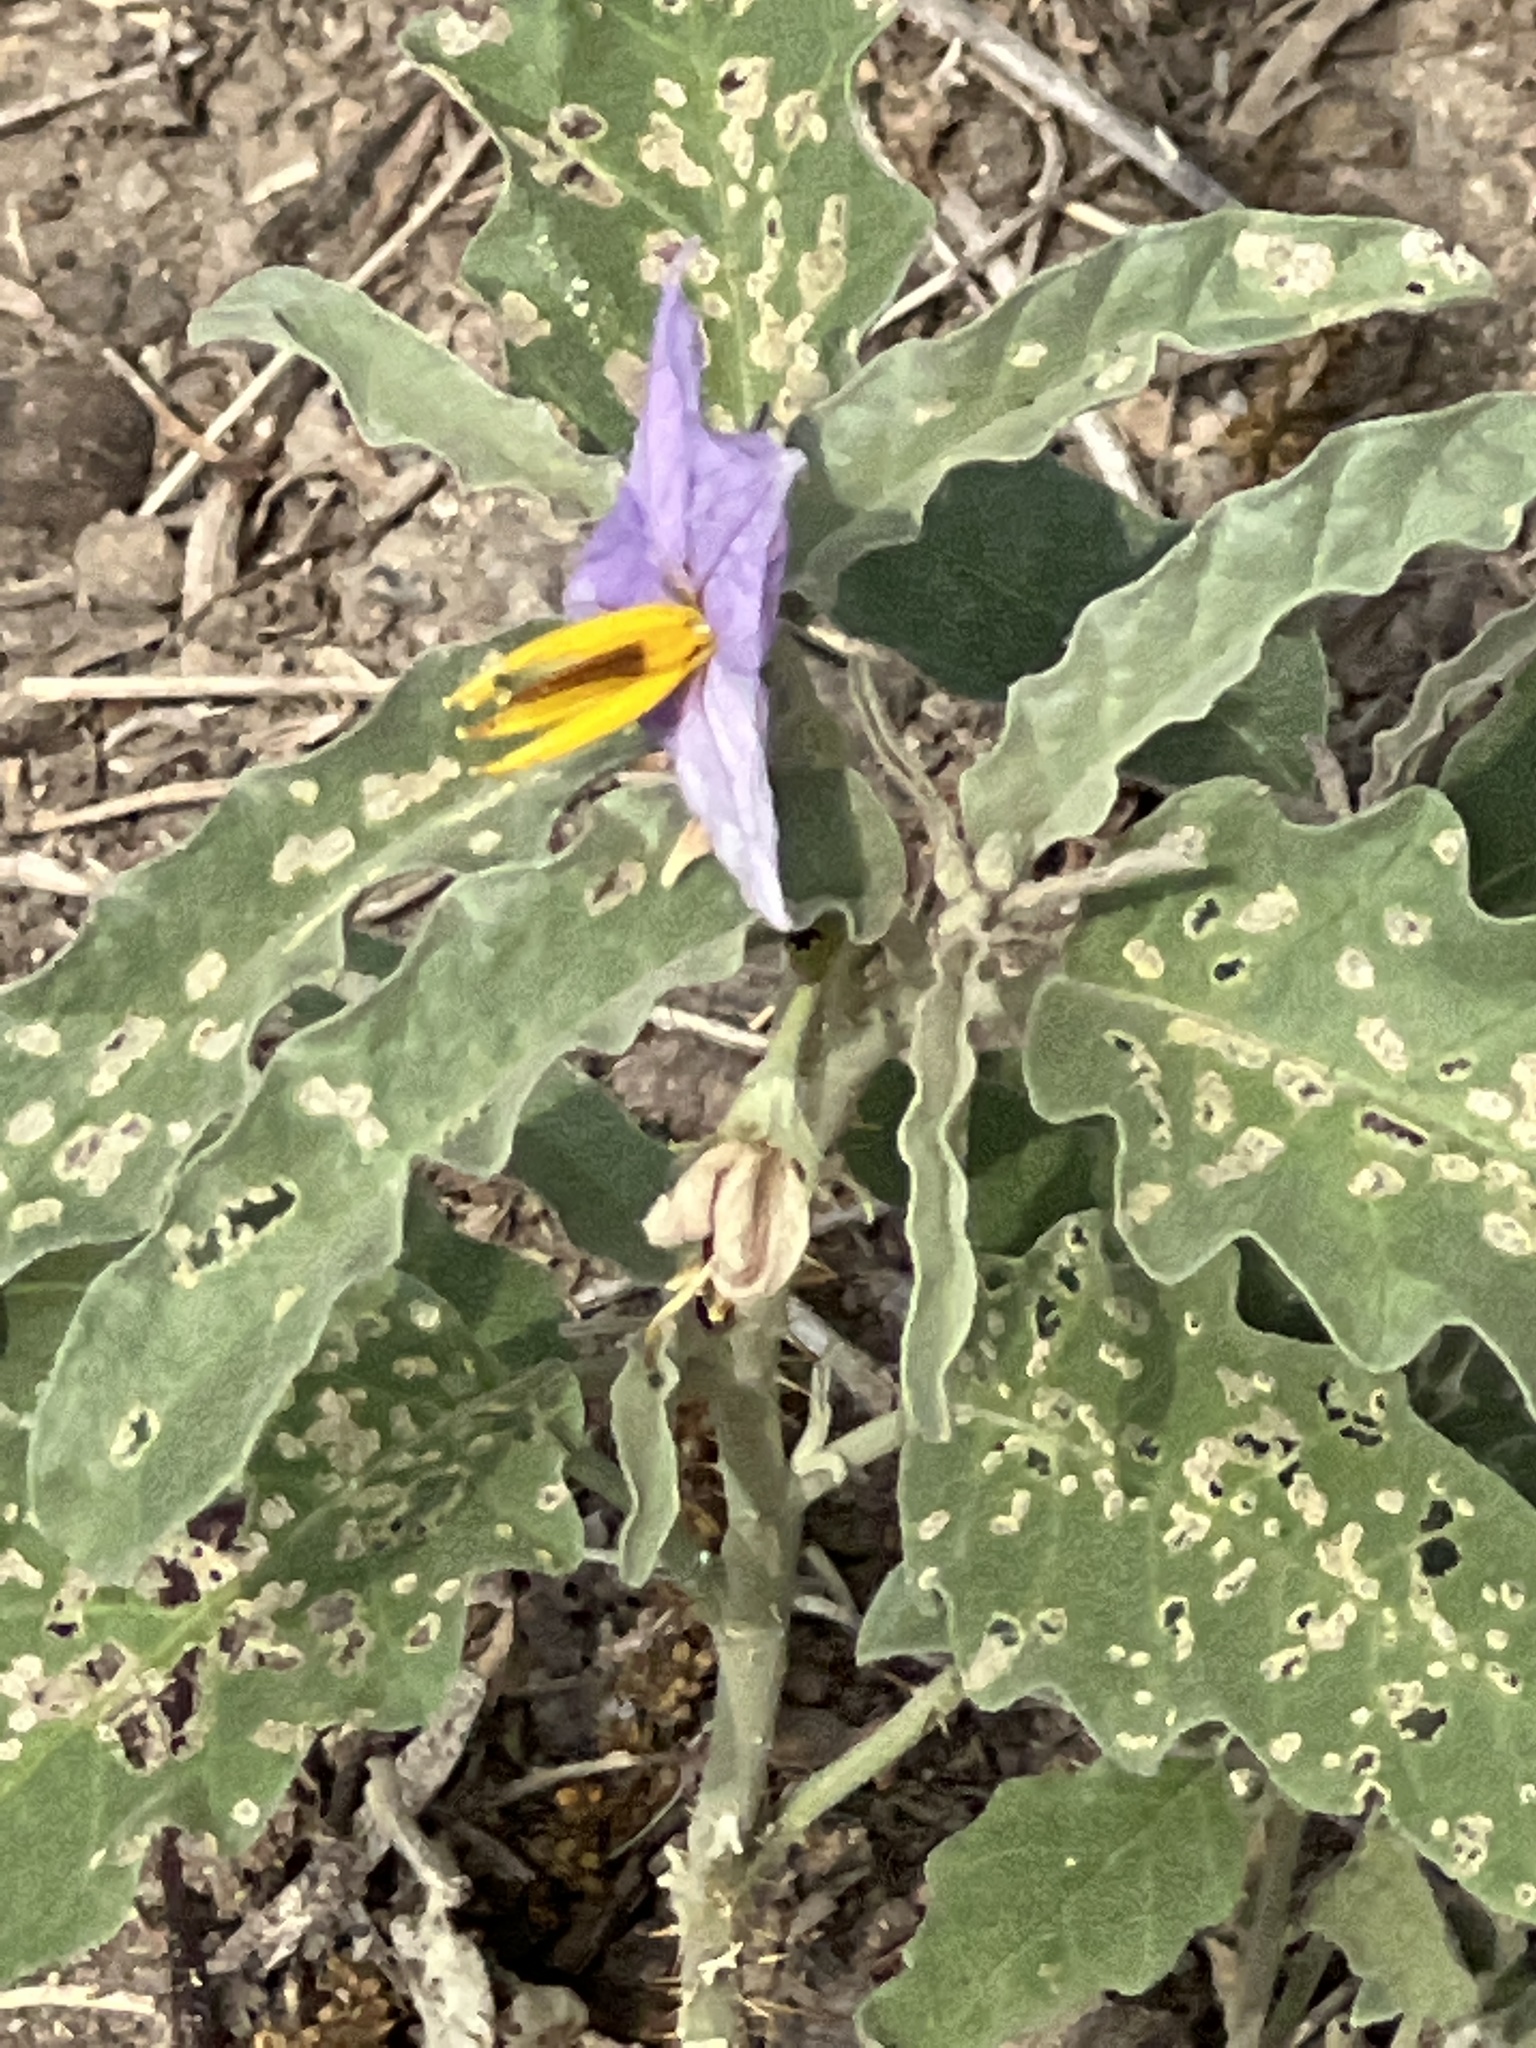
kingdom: Plantae
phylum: Tracheophyta
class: Magnoliopsida
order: Solanales
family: Solanaceae
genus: Solanum
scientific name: Solanum elaeagnifolium
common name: Silverleaf nightshade
